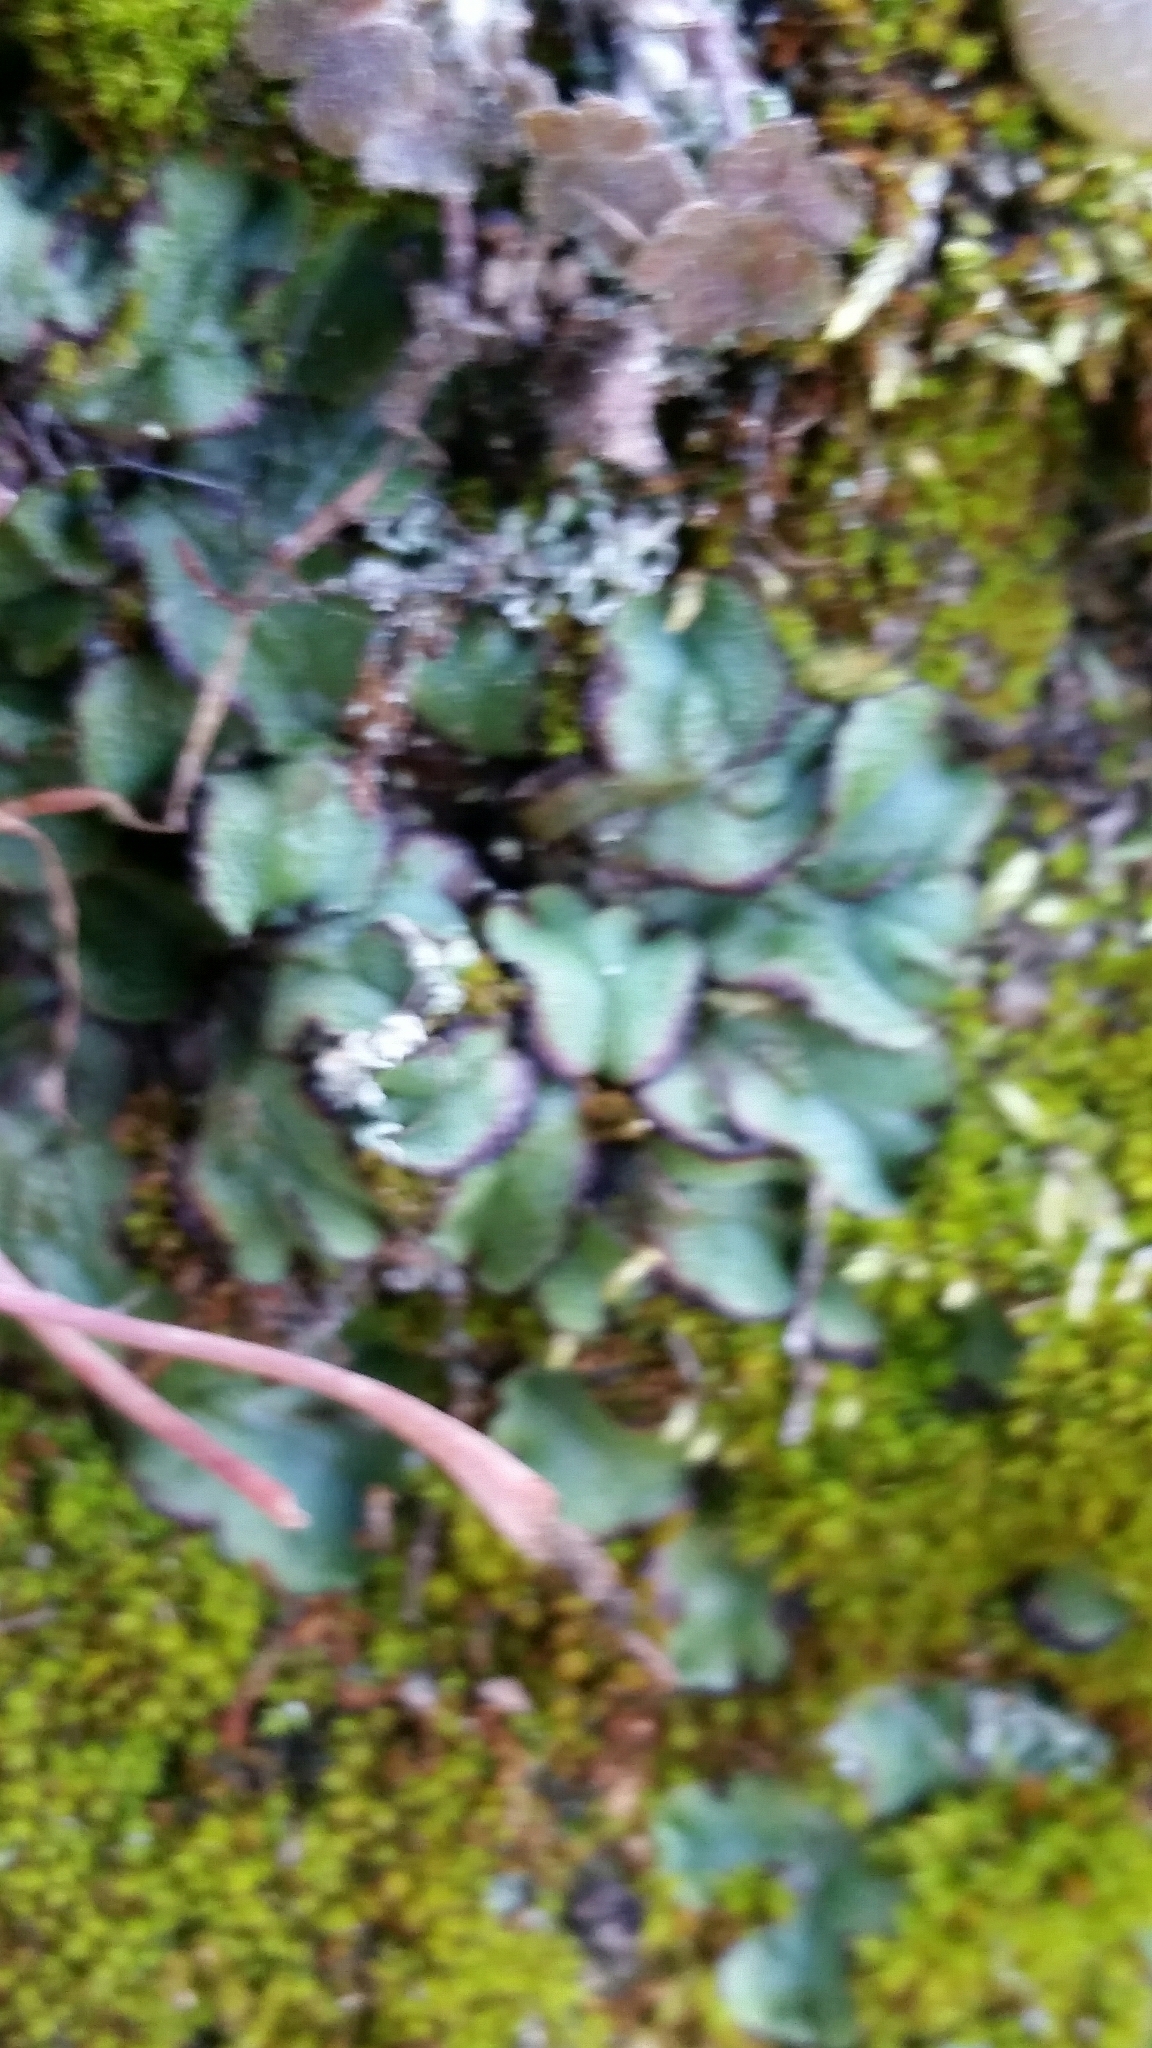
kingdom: Plantae
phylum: Marchantiophyta
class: Marchantiopsida
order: Marchantiales
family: Aytoniaceae
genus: Asterella
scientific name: Asterella californica
